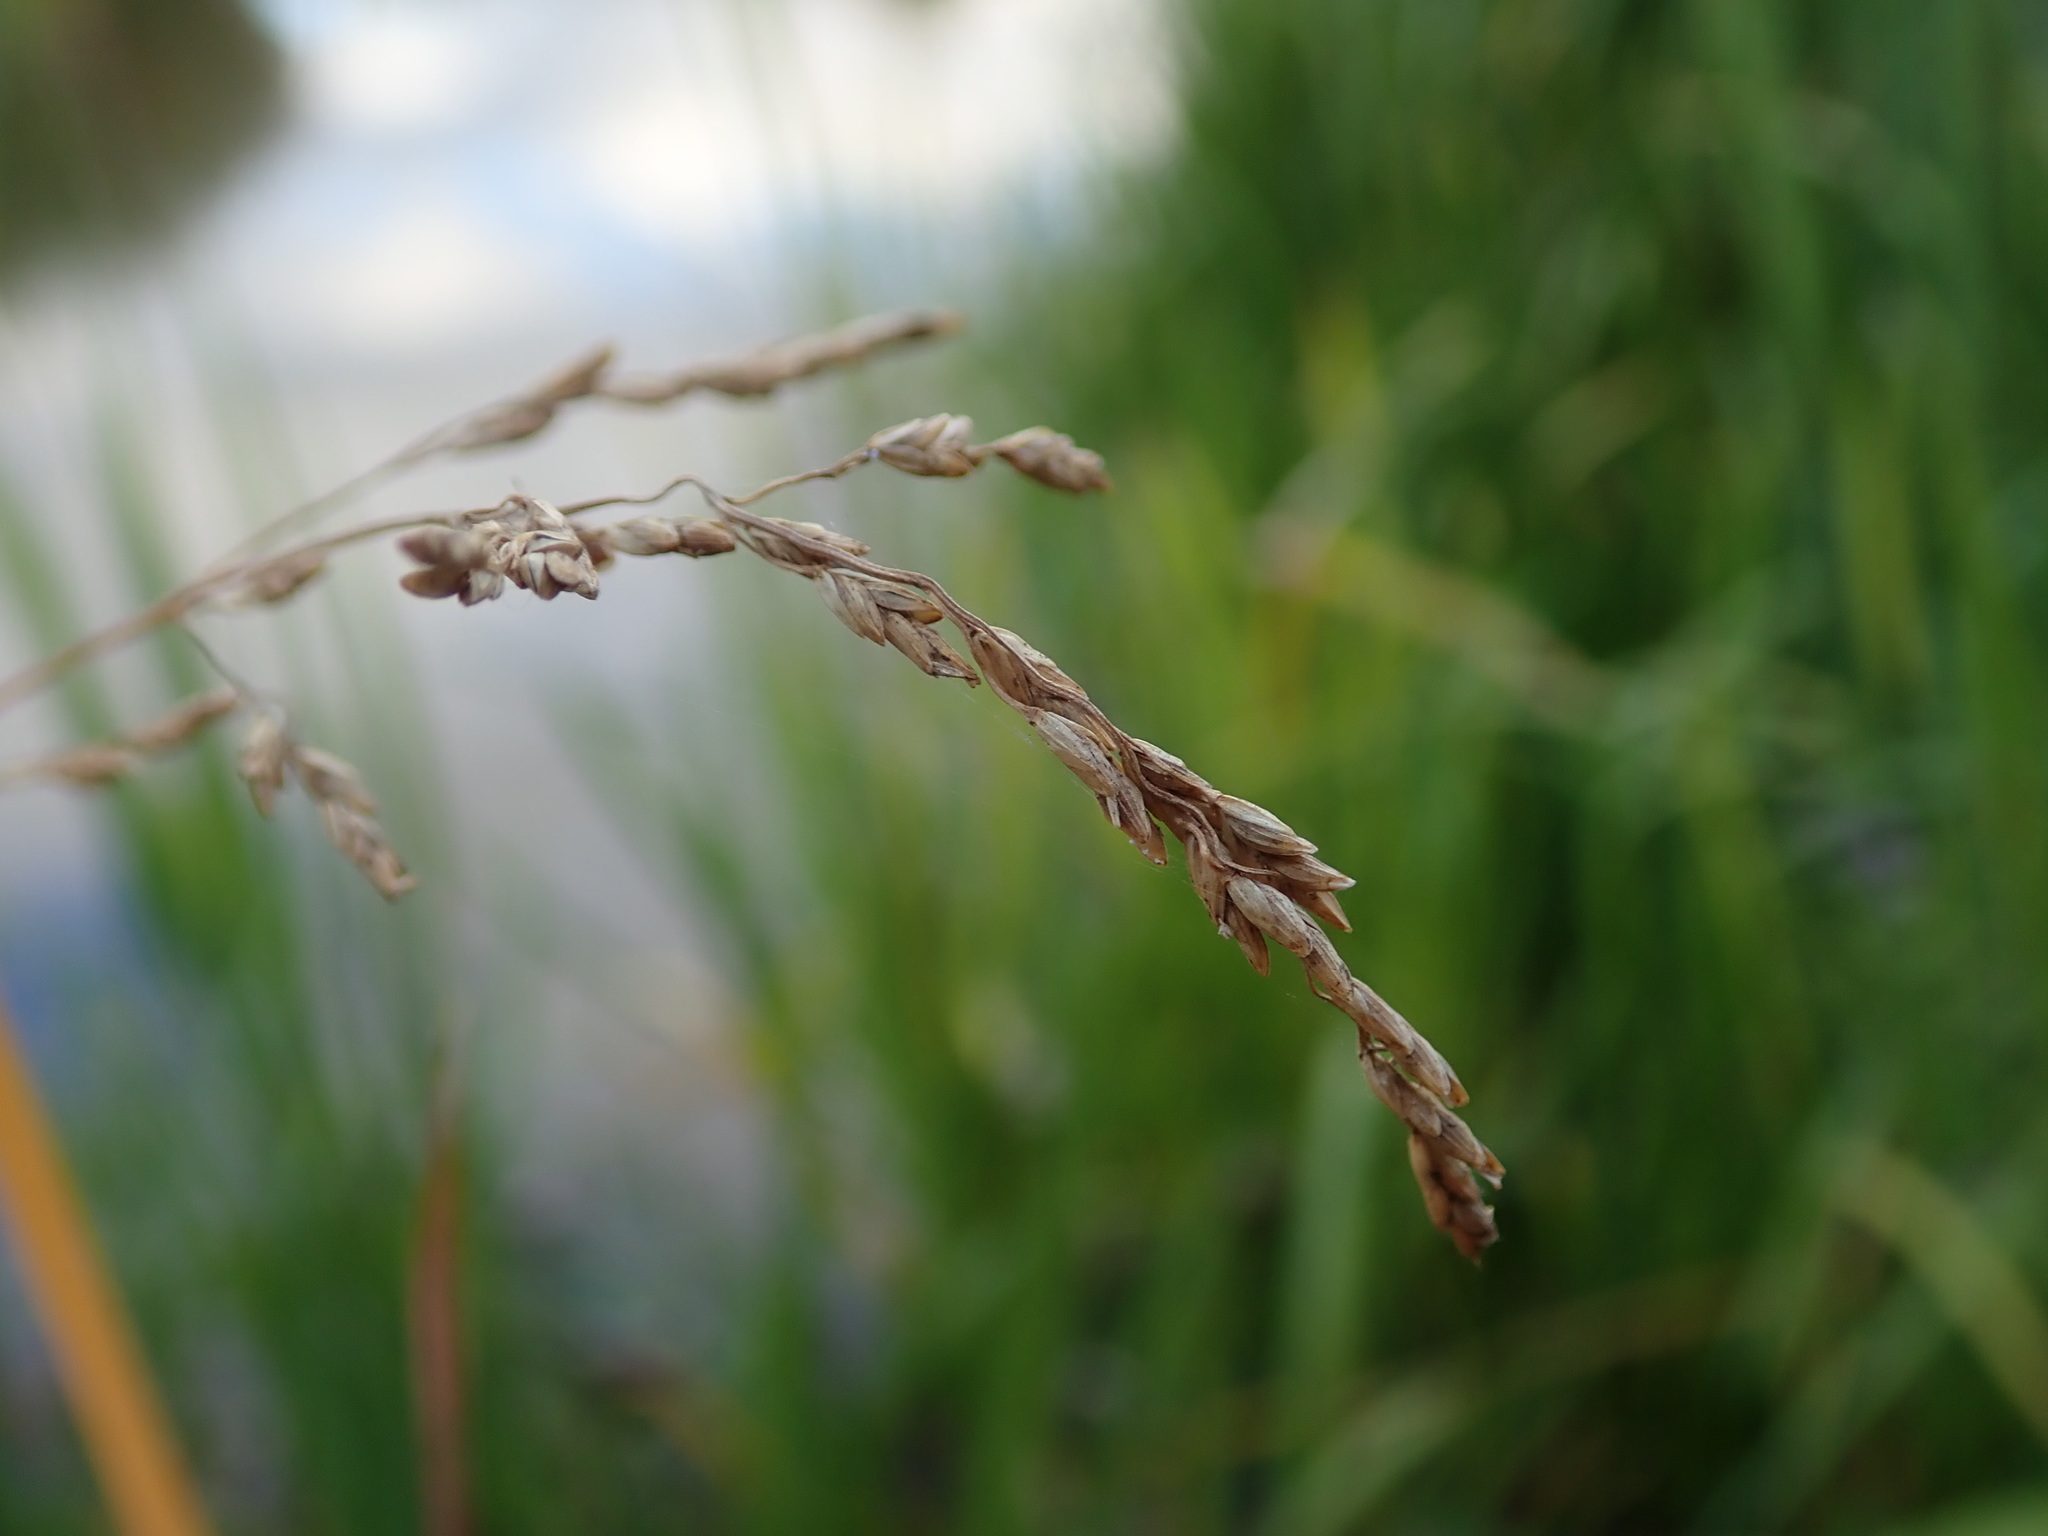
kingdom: Plantae
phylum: Tracheophyta
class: Liliopsida
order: Poales
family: Poaceae
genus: Glyceria
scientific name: Glyceria maxima
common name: Reed mannagrass
